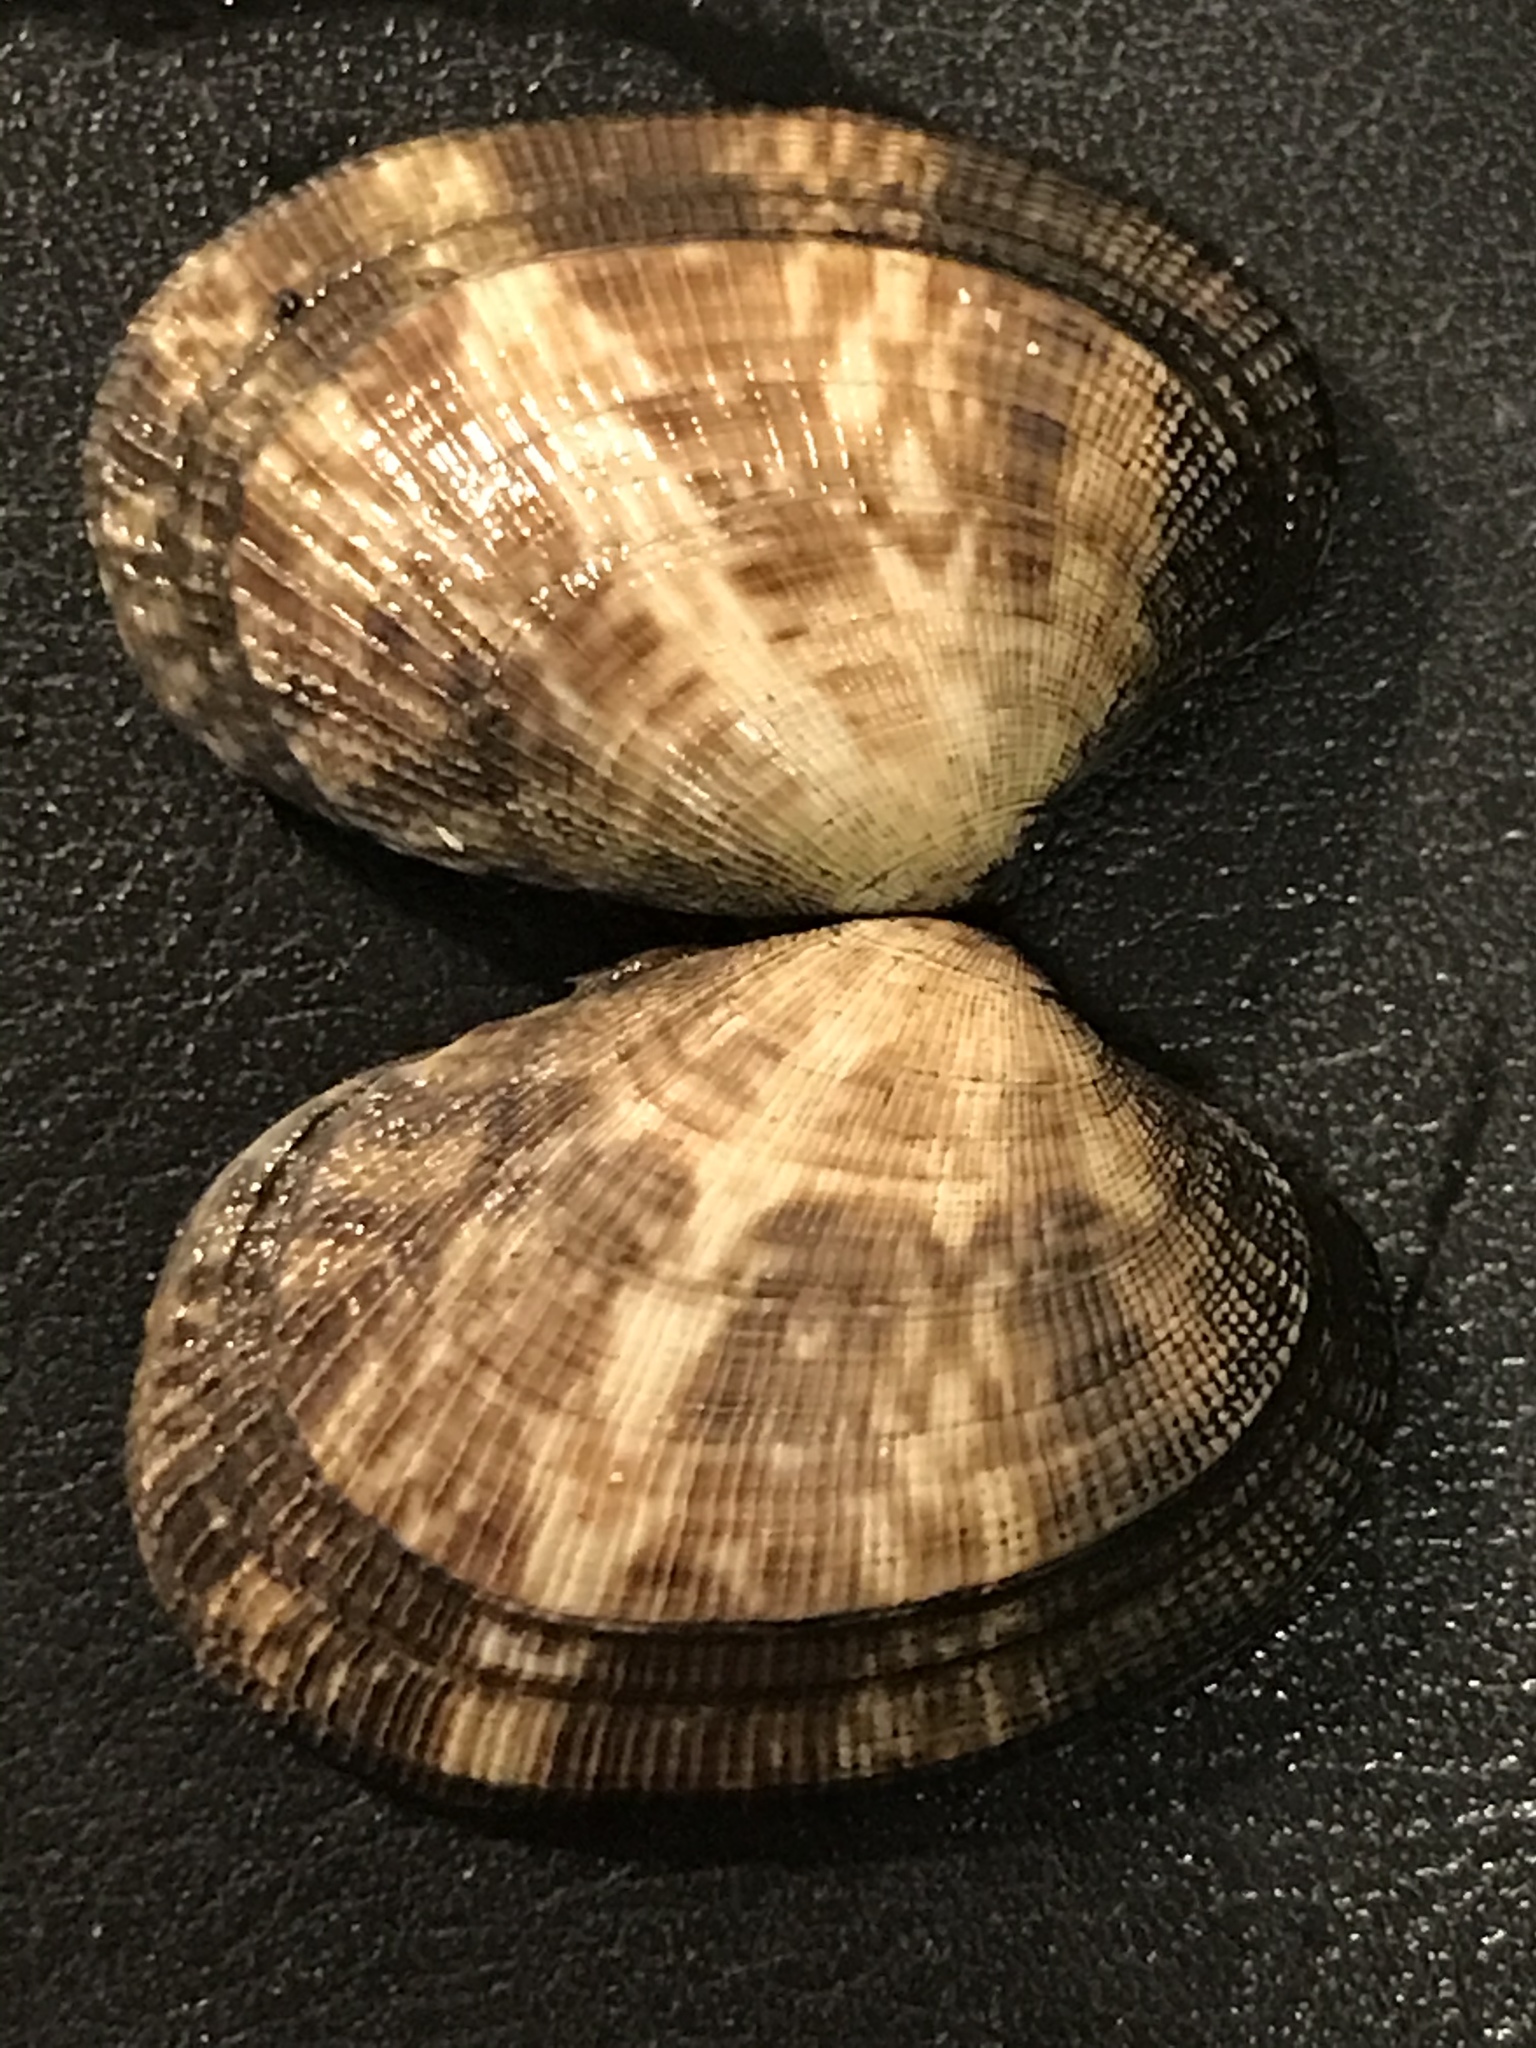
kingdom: Animalia
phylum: Mollusca
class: Bivalvia
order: Venerida
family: Veneridae
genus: Ruditapes
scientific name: Ruditapes philippinarum
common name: Manila clam
